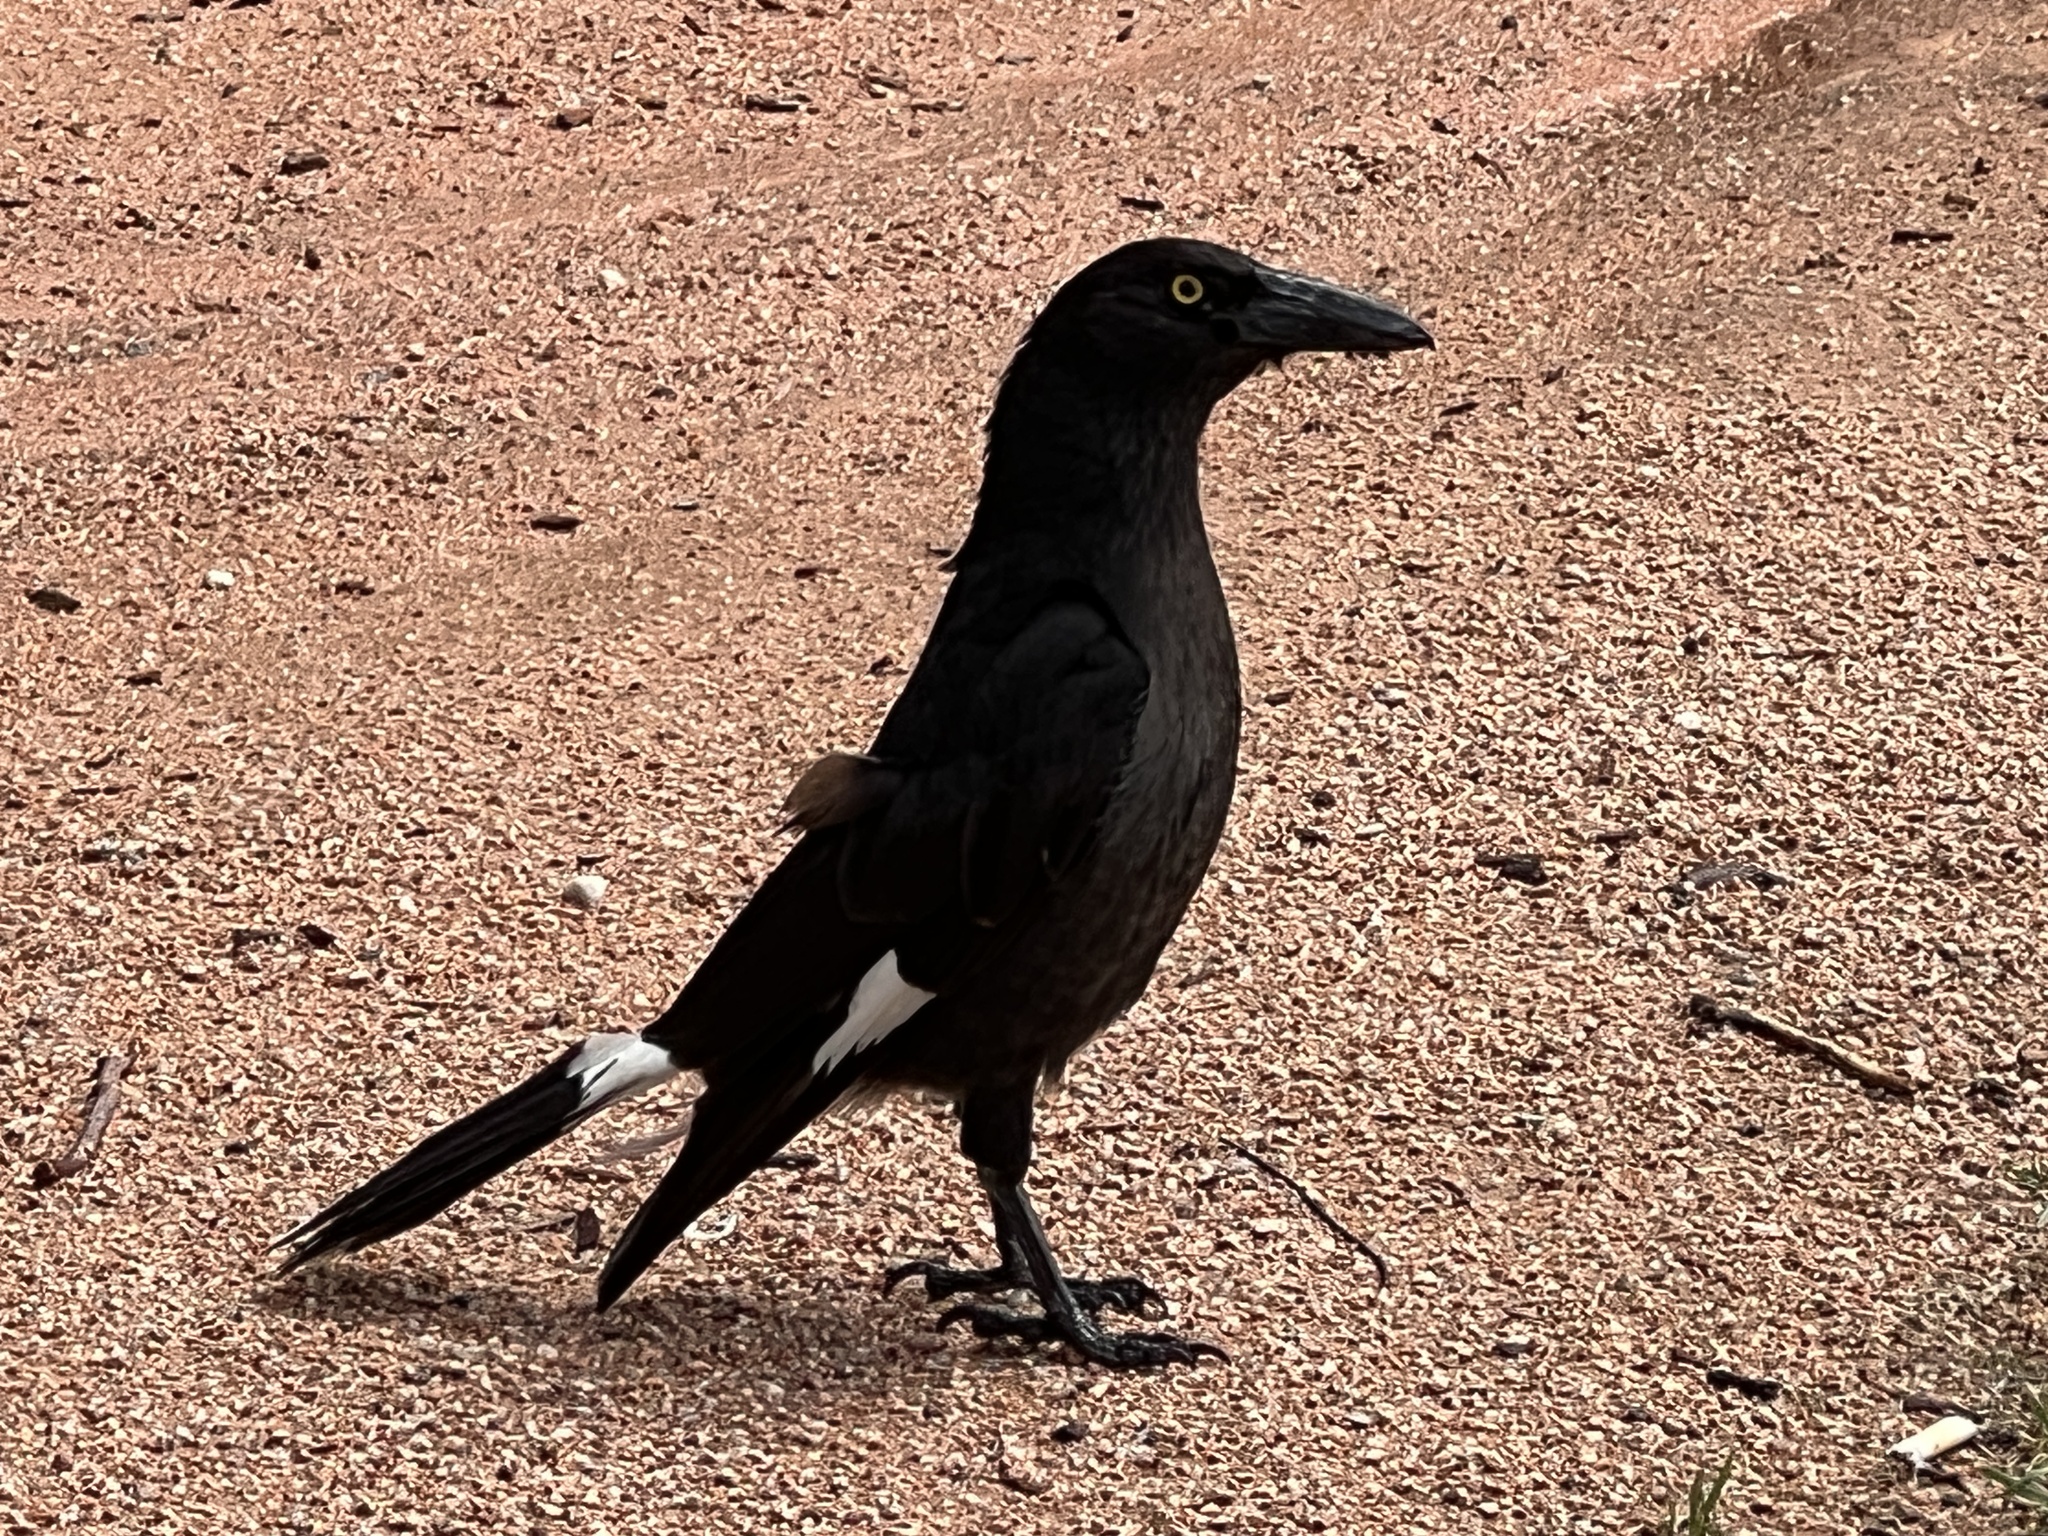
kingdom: Animalia
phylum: Chordata
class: Aves
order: Passeriformes
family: Cracticidae
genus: Strepera
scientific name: Strepera graculina
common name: Pied currawong
